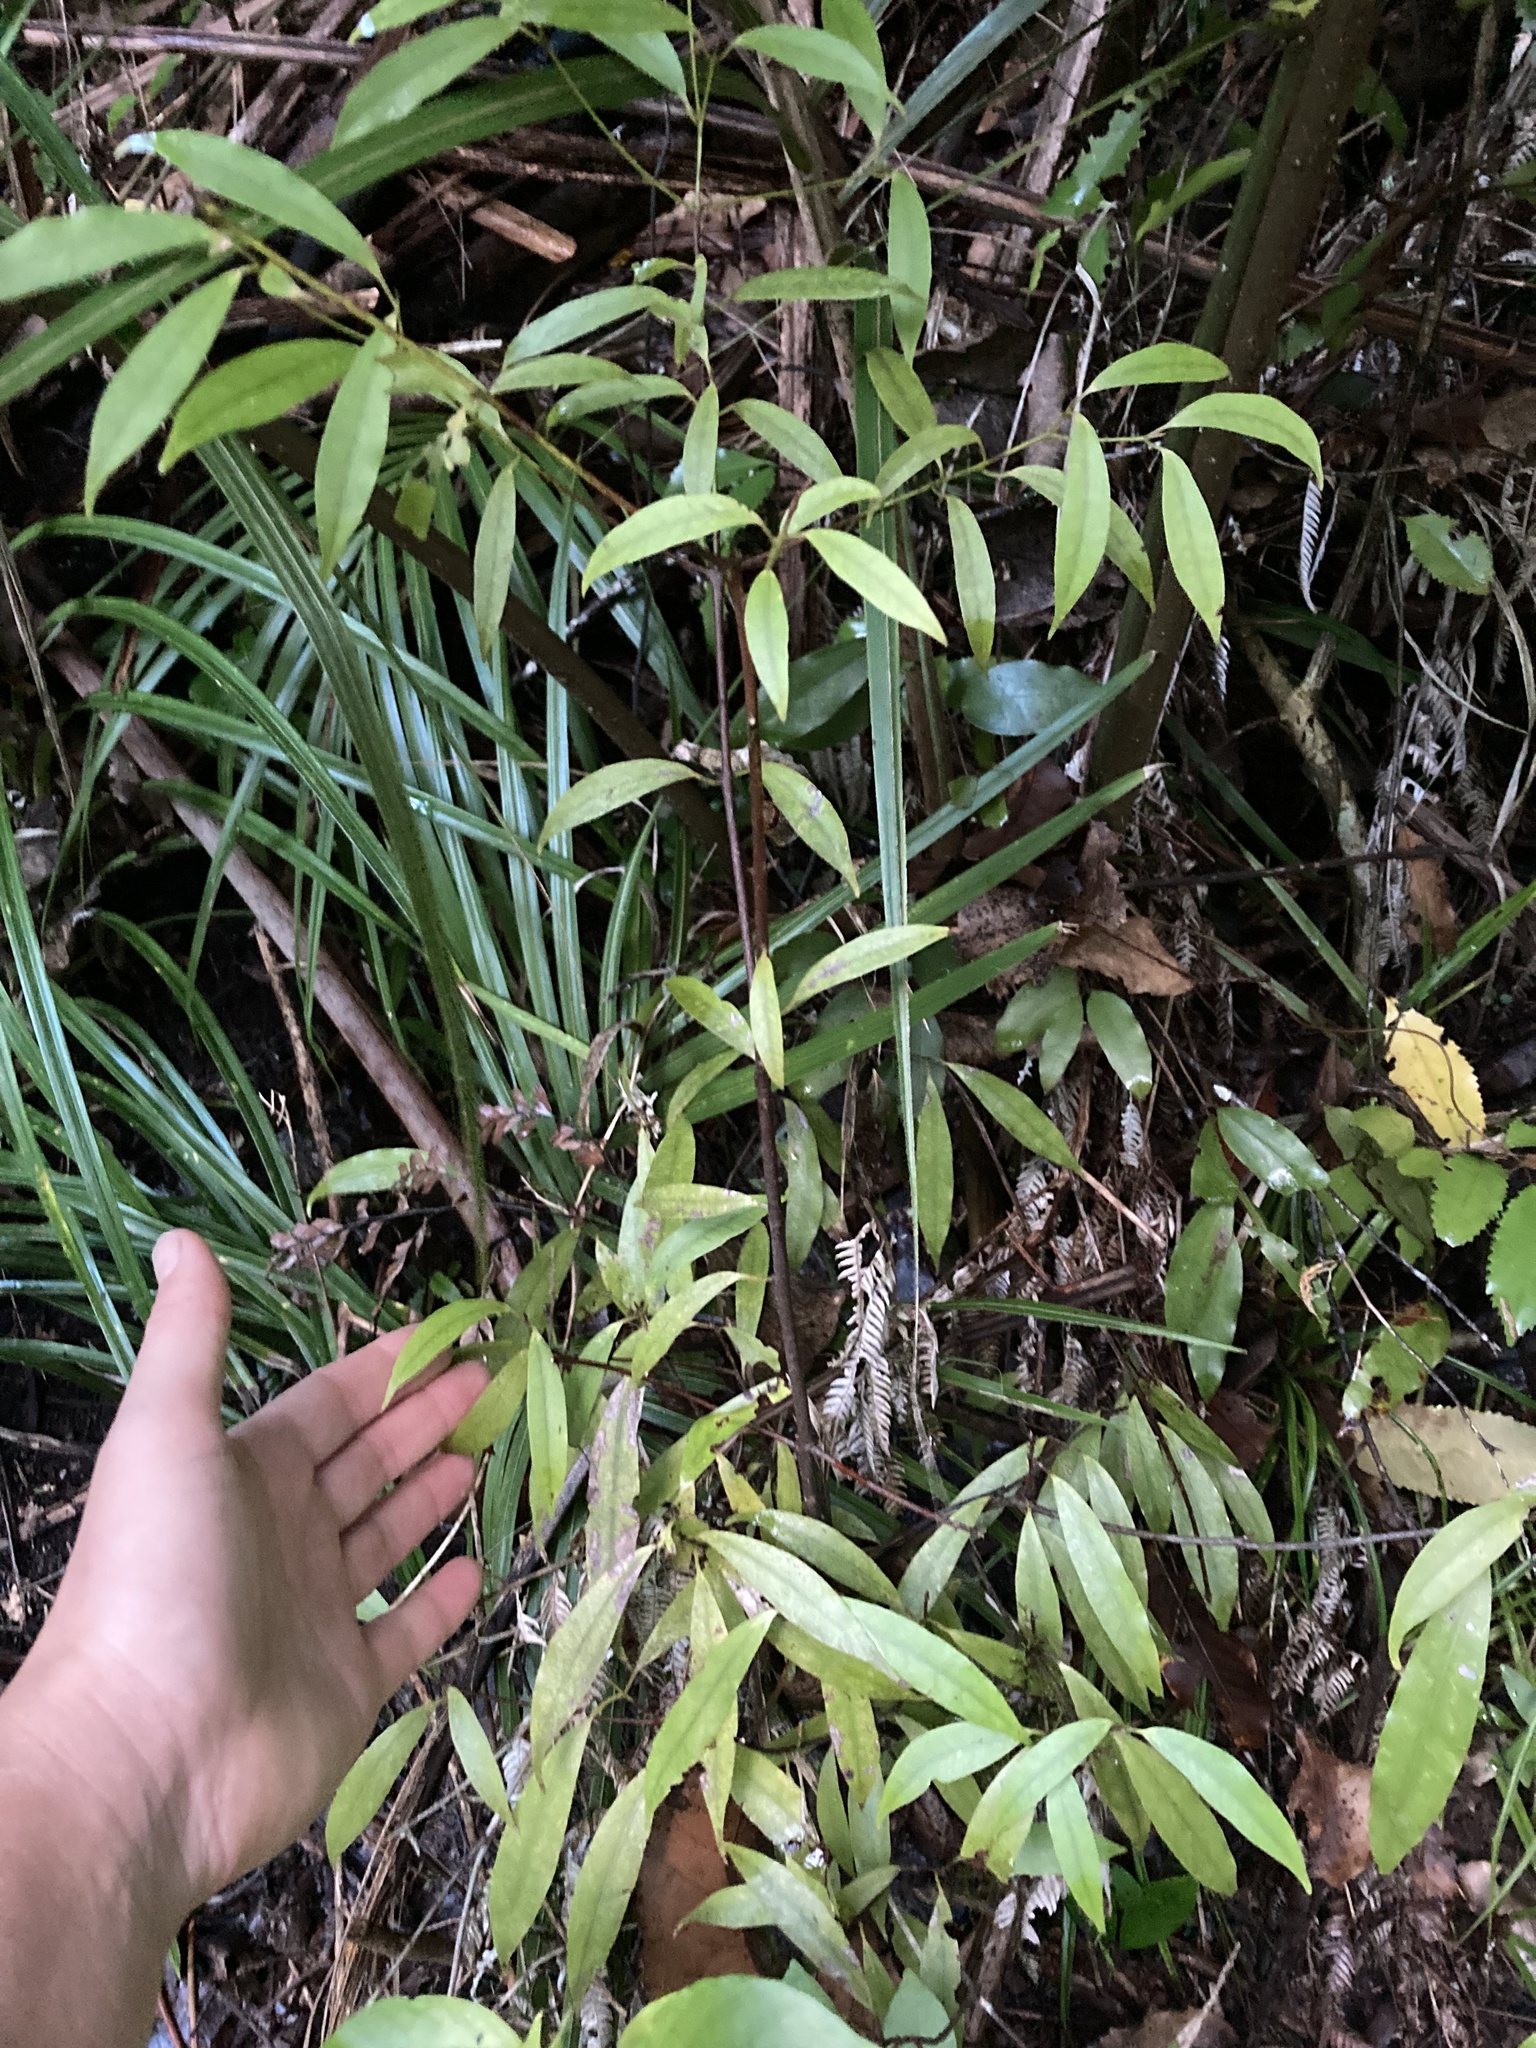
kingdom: Plantae
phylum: Tracheophyta
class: Magnoliopsida
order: Laurales
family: Lauraceae
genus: Beilschmiedia
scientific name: Beilschmiedia tawa
